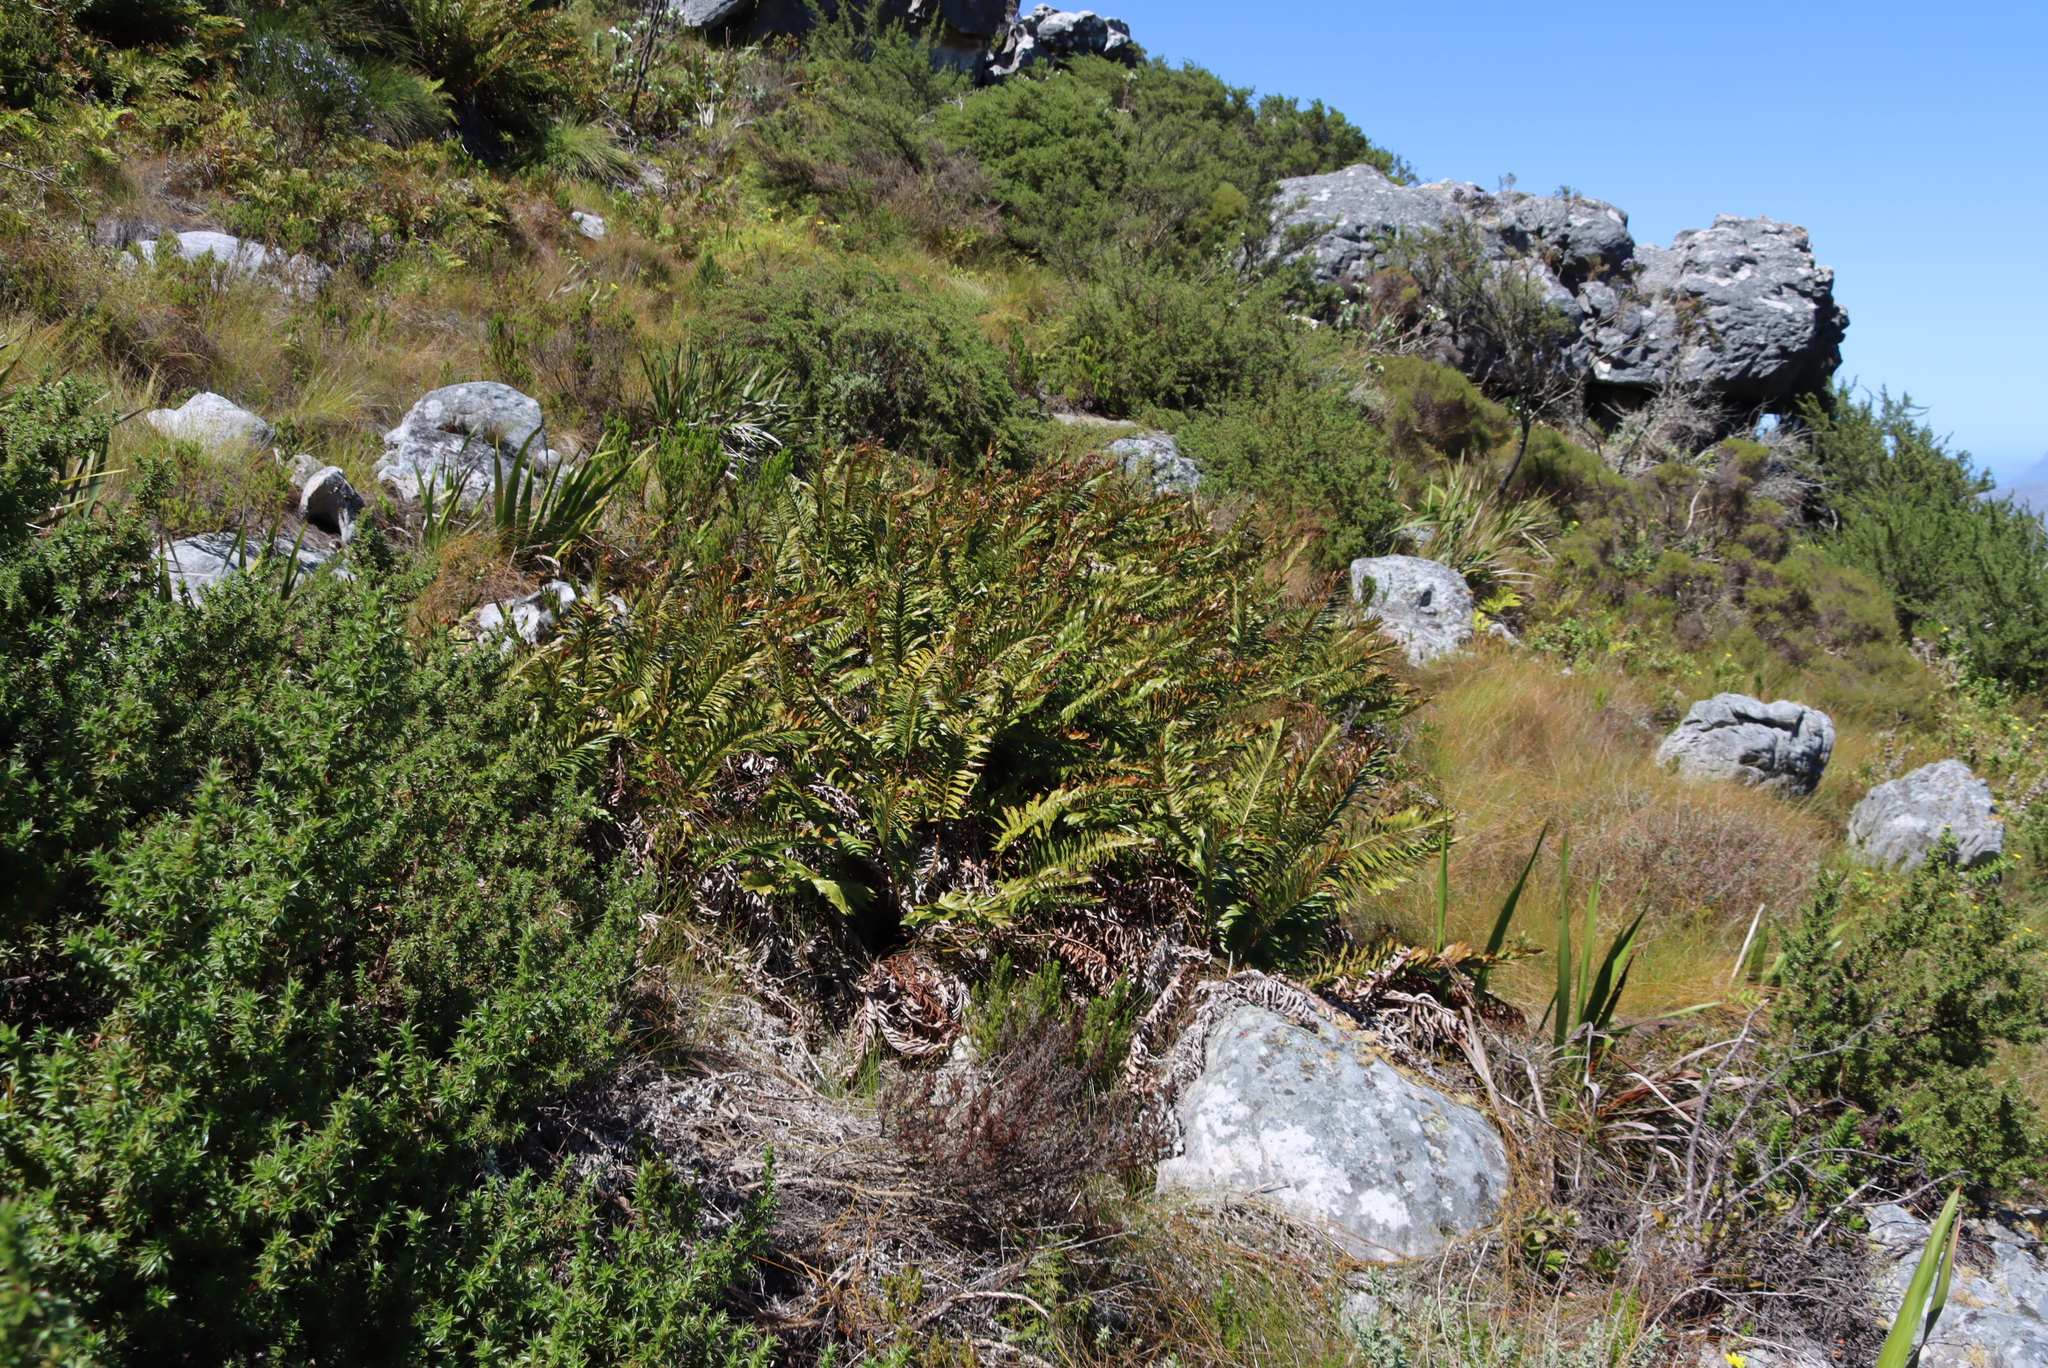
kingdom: Plantae
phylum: Tracheophyta
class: Polypodiopsida
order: Osmundales
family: Osmundaceae
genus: Todea
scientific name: Todea barbara
